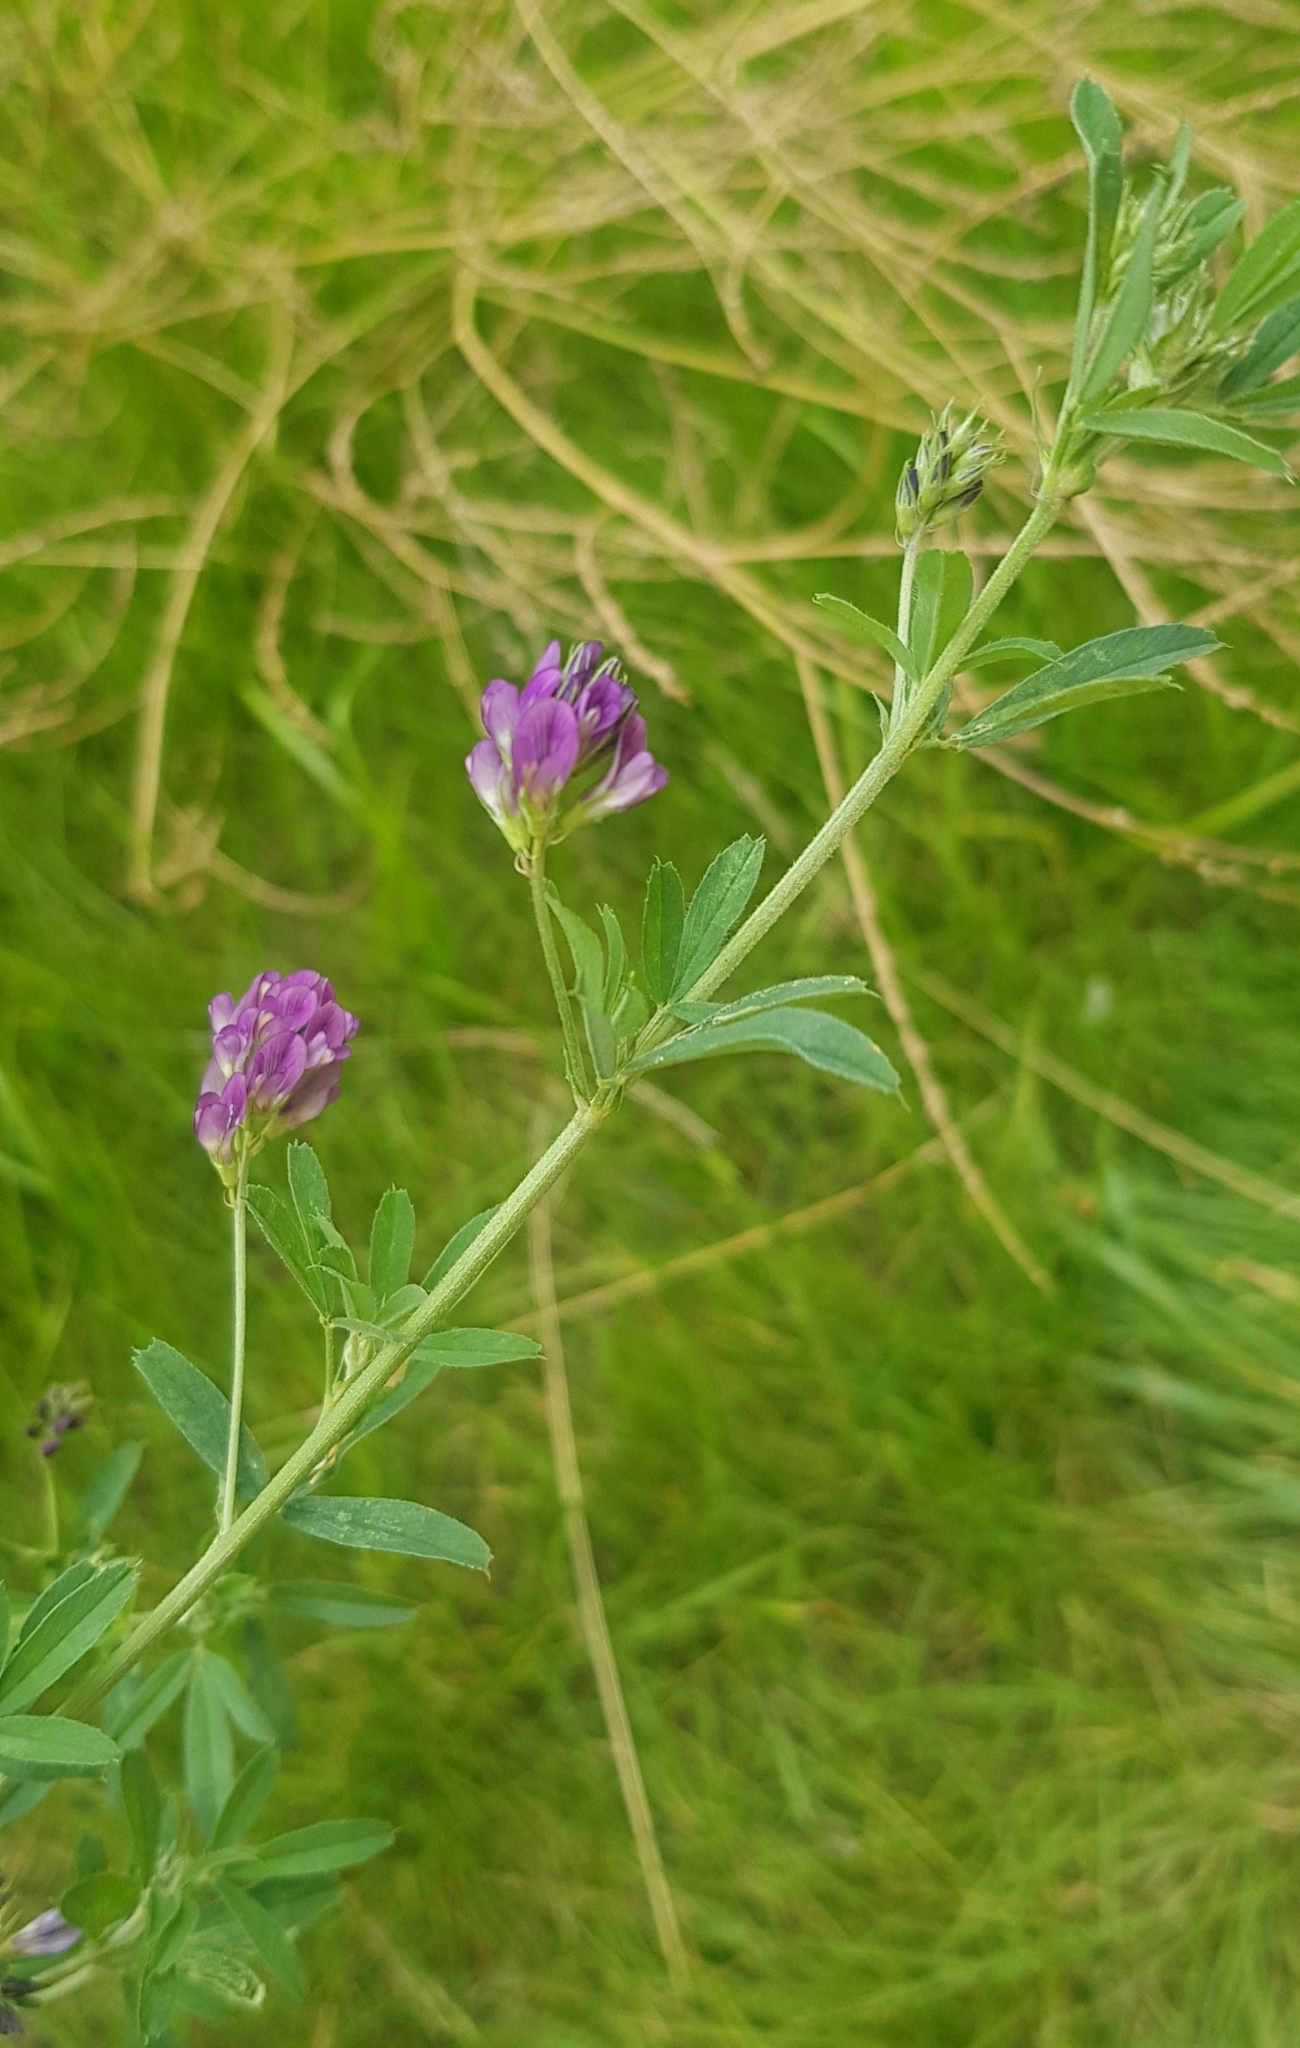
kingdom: Plantae
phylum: Tracheophyta
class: Magnoliopsida
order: Fabales
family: Fabaceae
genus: Medicago
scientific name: Medicago sativa
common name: Alfalfa
